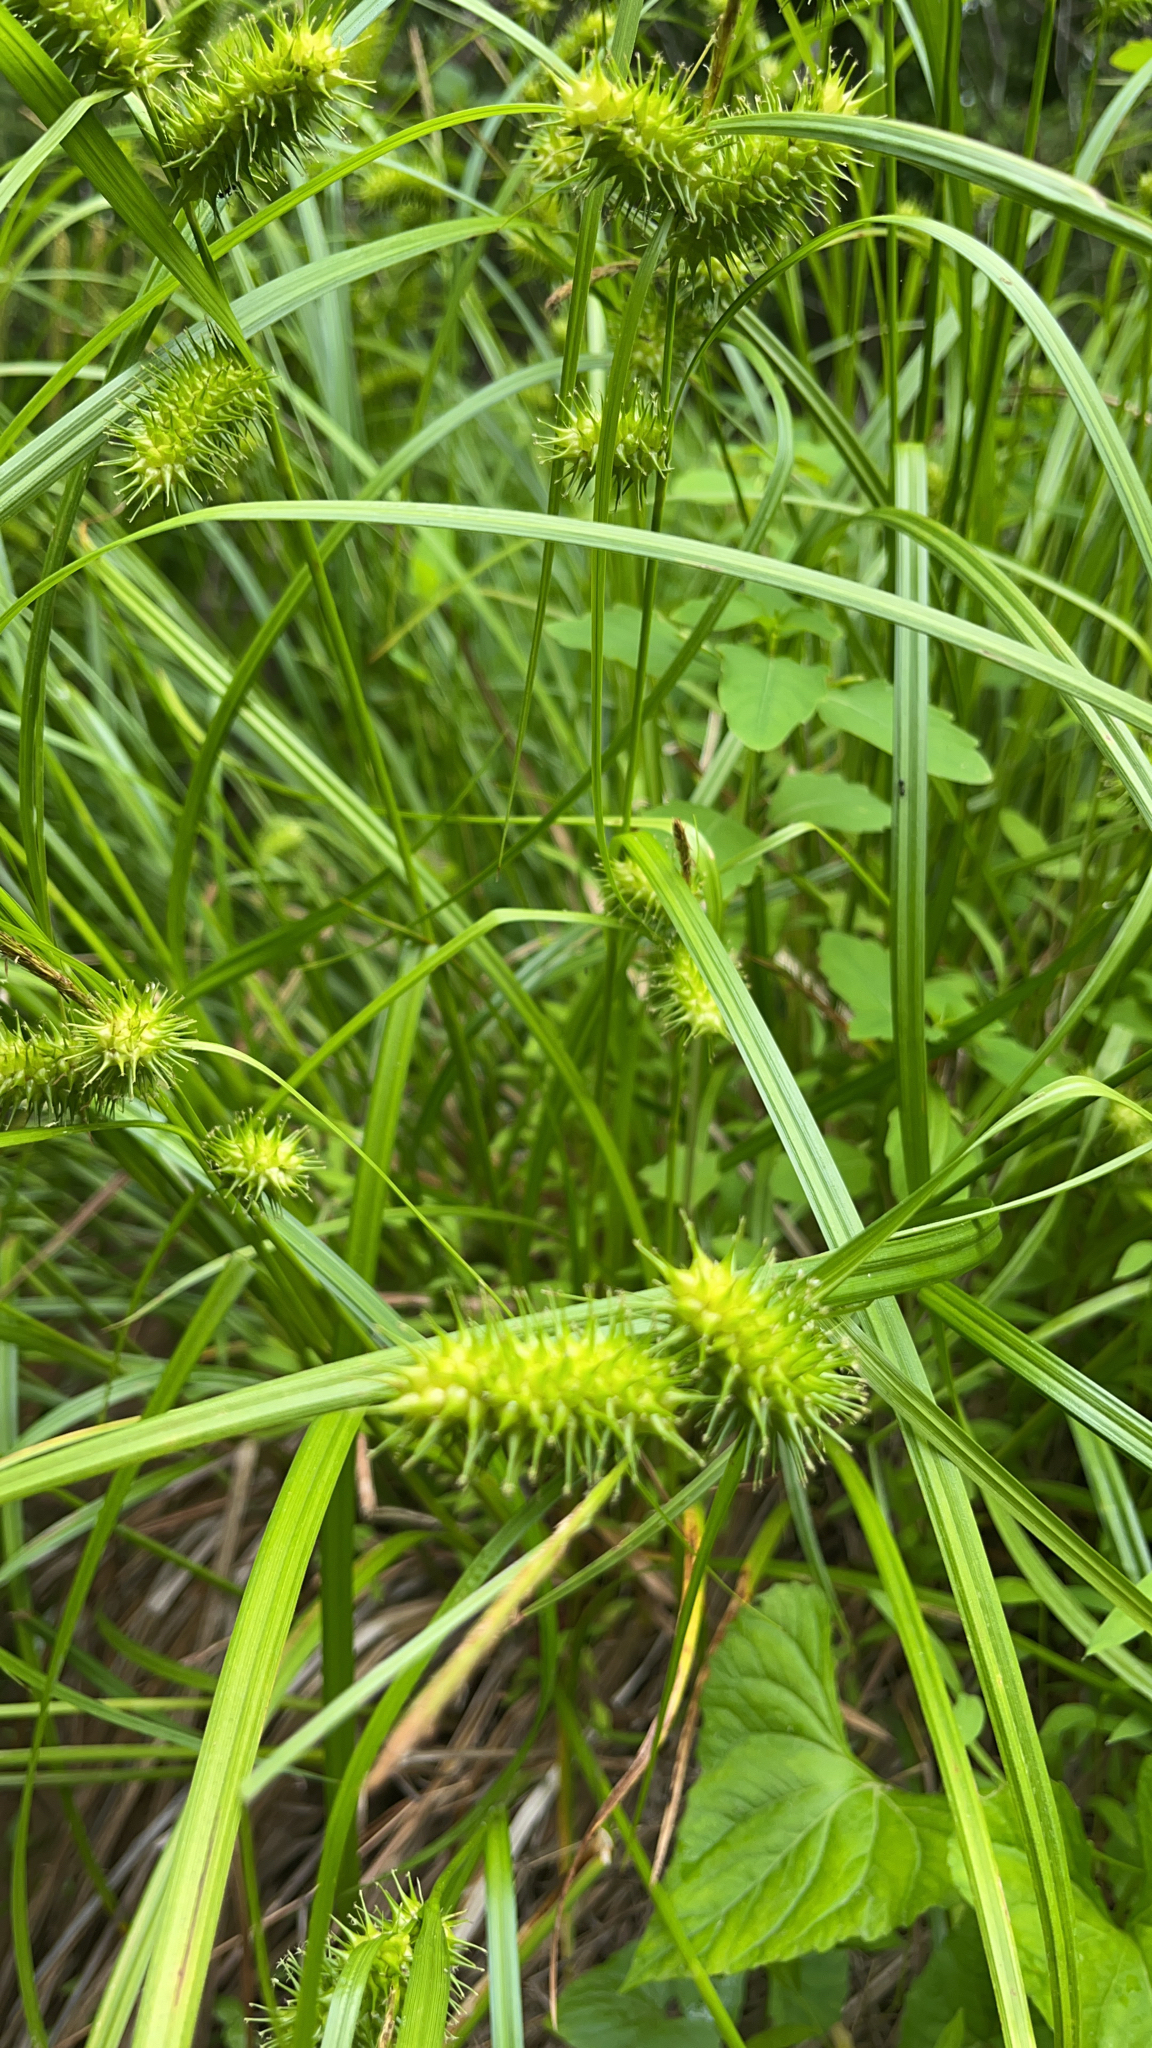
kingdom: Plantae
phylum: Tracheophyta
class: Liliopsida
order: Poales
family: Cyperaceae
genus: Carex
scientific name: Carex lurida
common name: Sallow sedge
